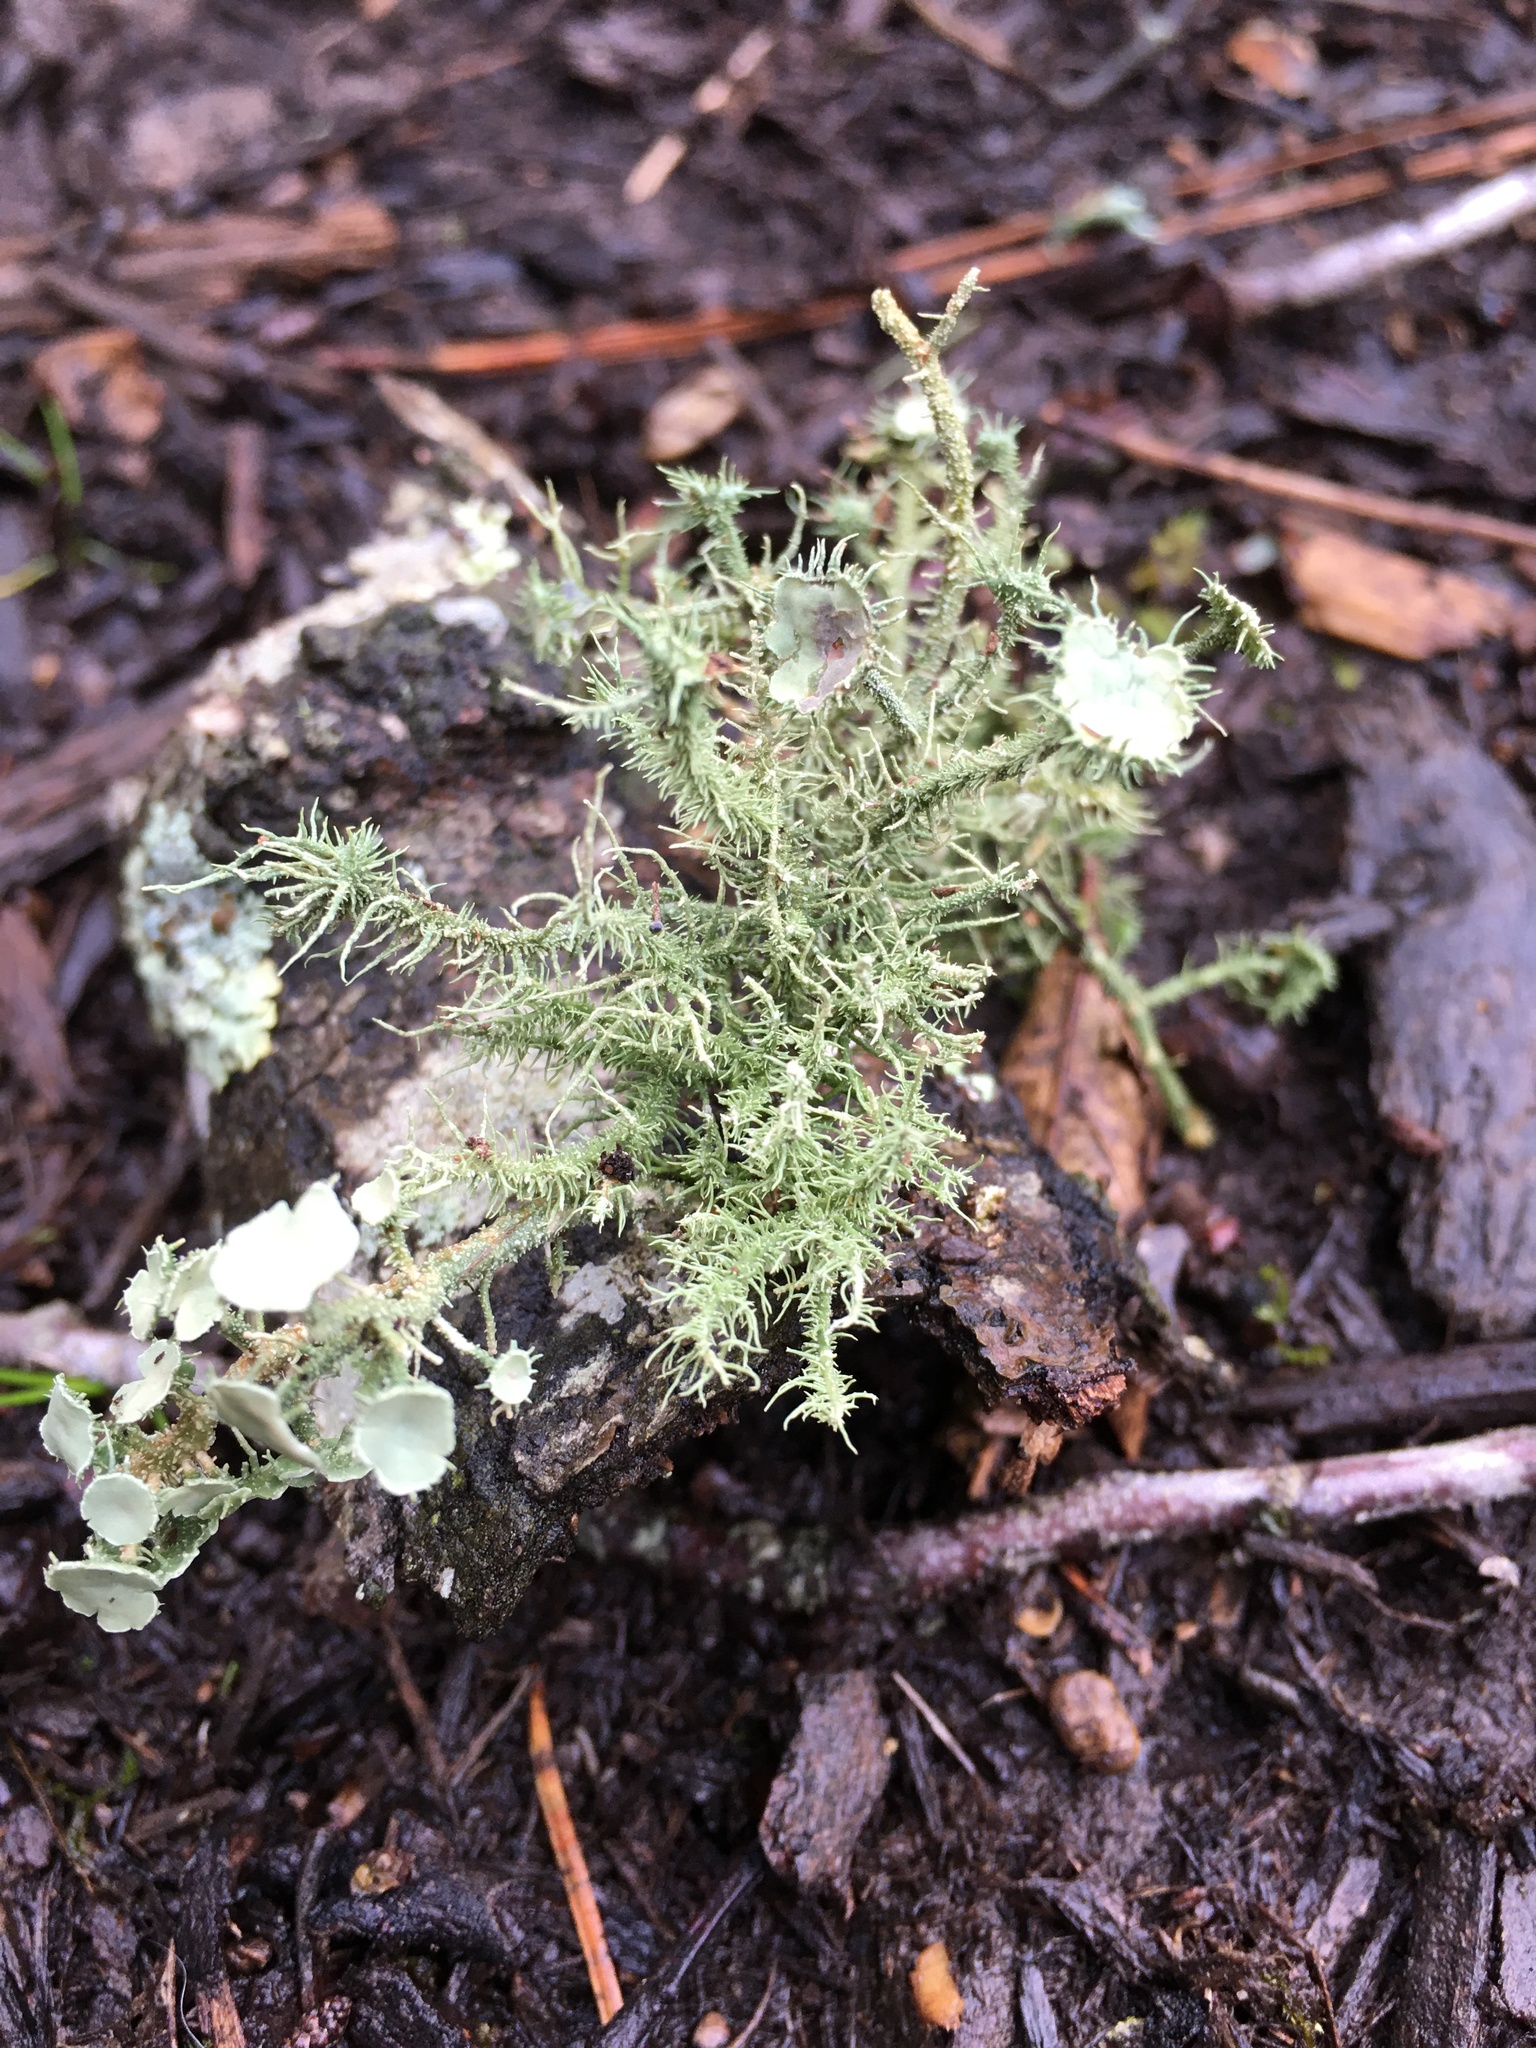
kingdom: Fungi
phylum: Ascomycota
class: Lecanoromycetes
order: Lecanorales
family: Parmeliaceae
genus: Usnea
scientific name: Usnea strigosa
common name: Bushy beard lichen
